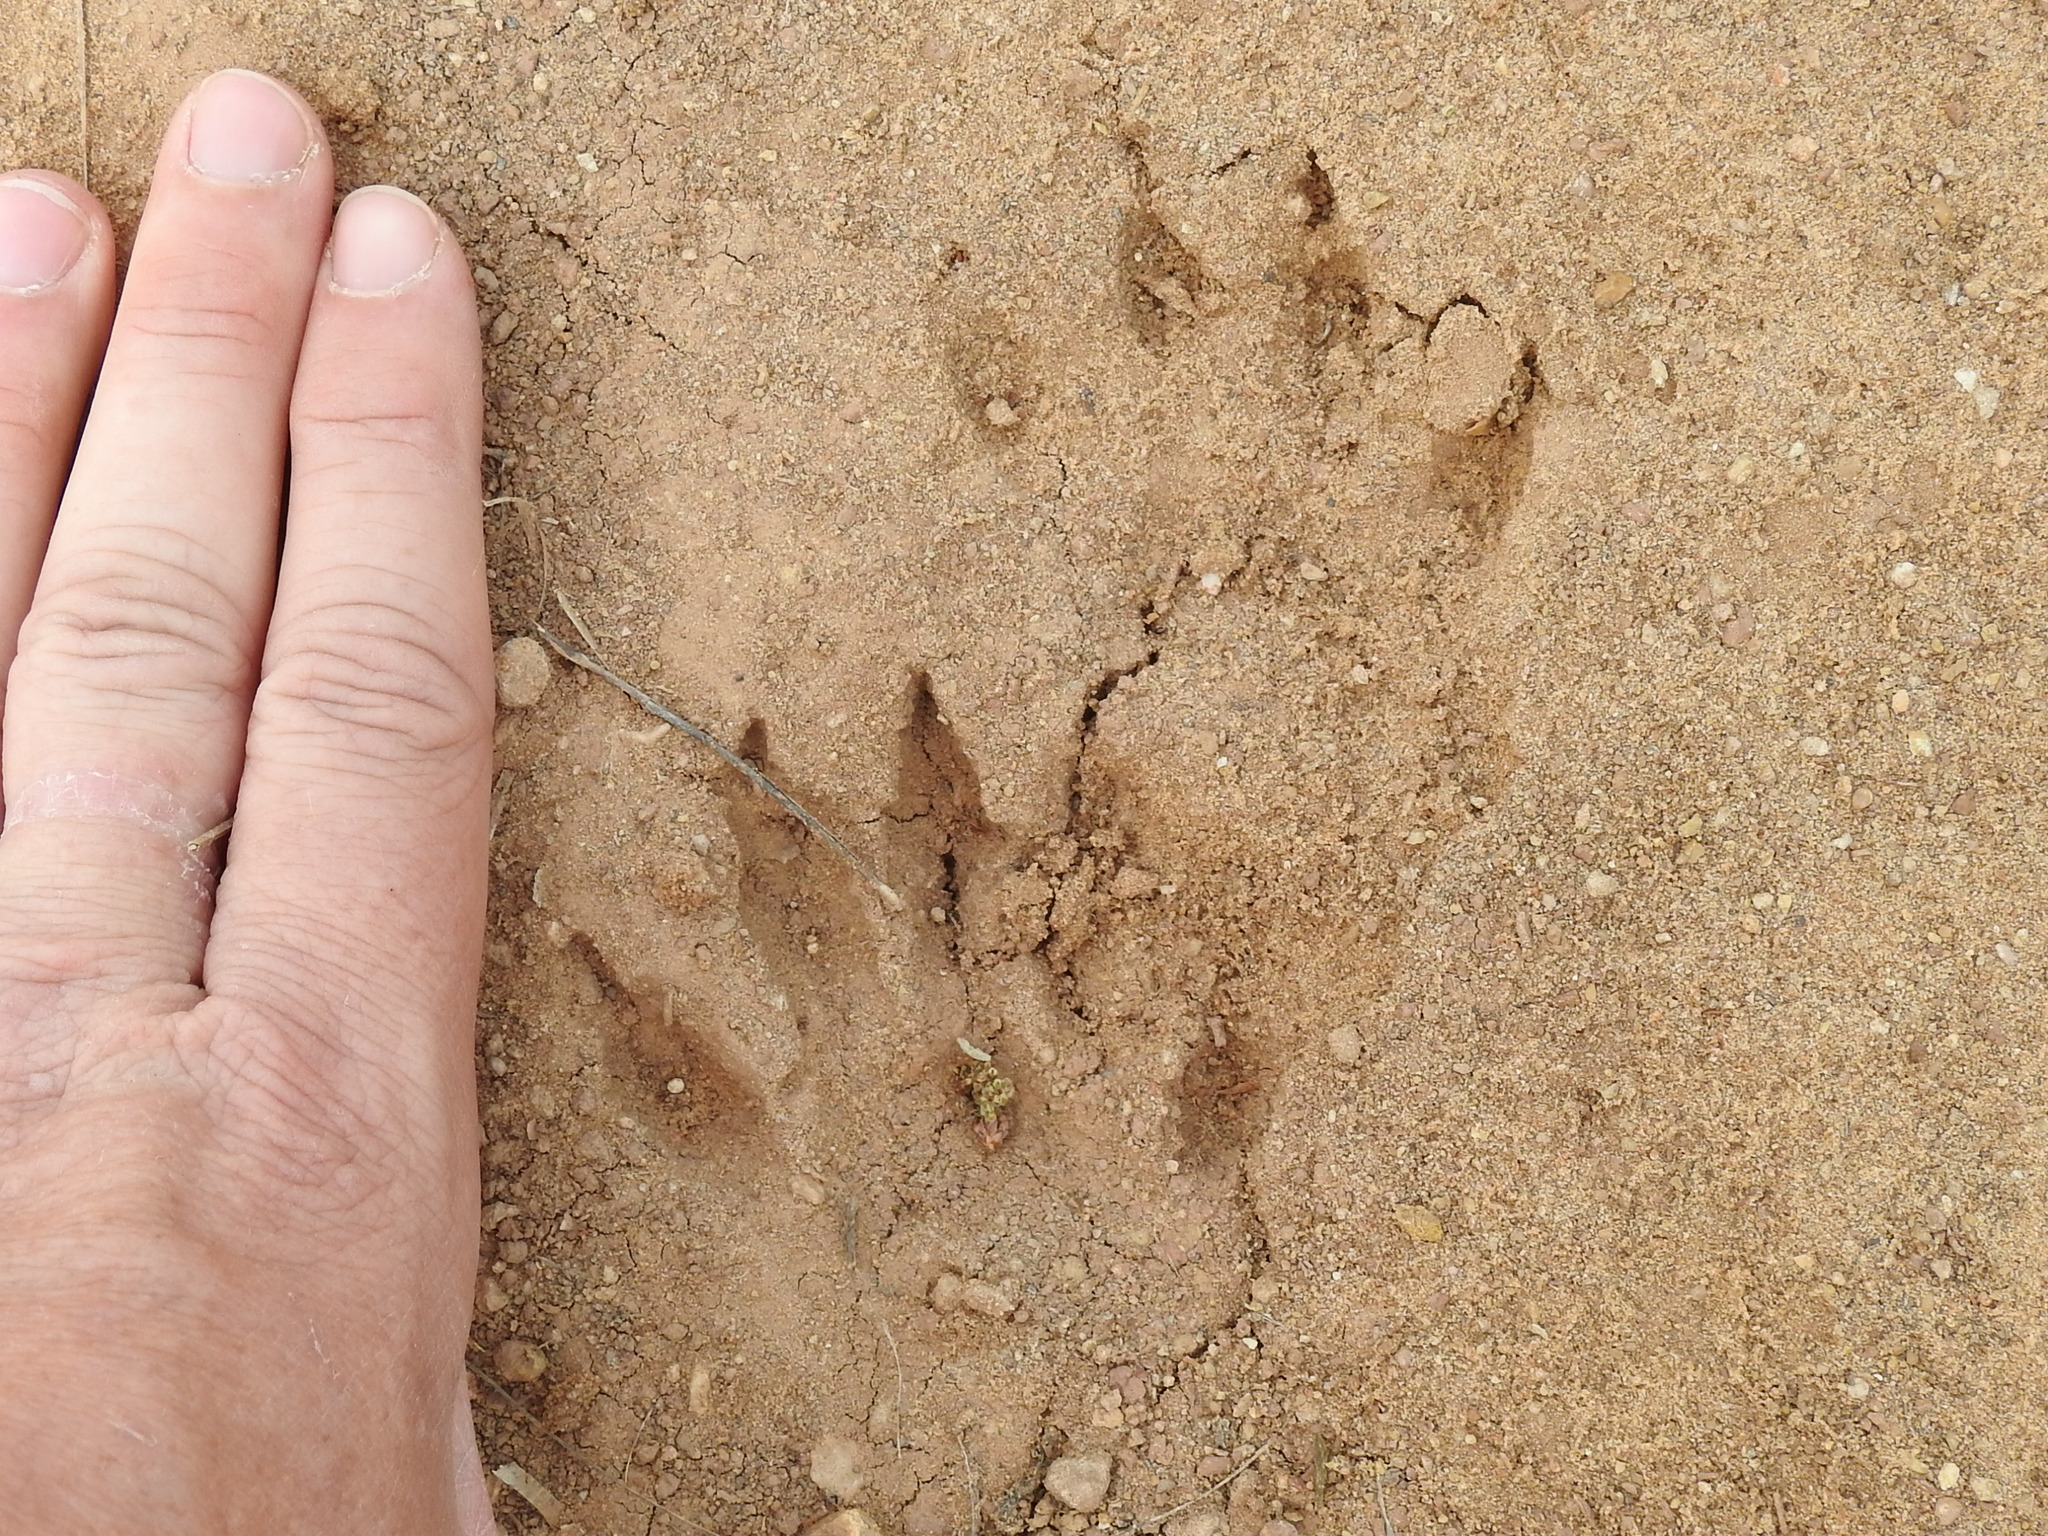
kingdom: Animalia
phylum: Chordata
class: Mammalia
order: Carnivora
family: Procyonidae
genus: Procyon
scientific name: Procyon lotor
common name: Raccoon
